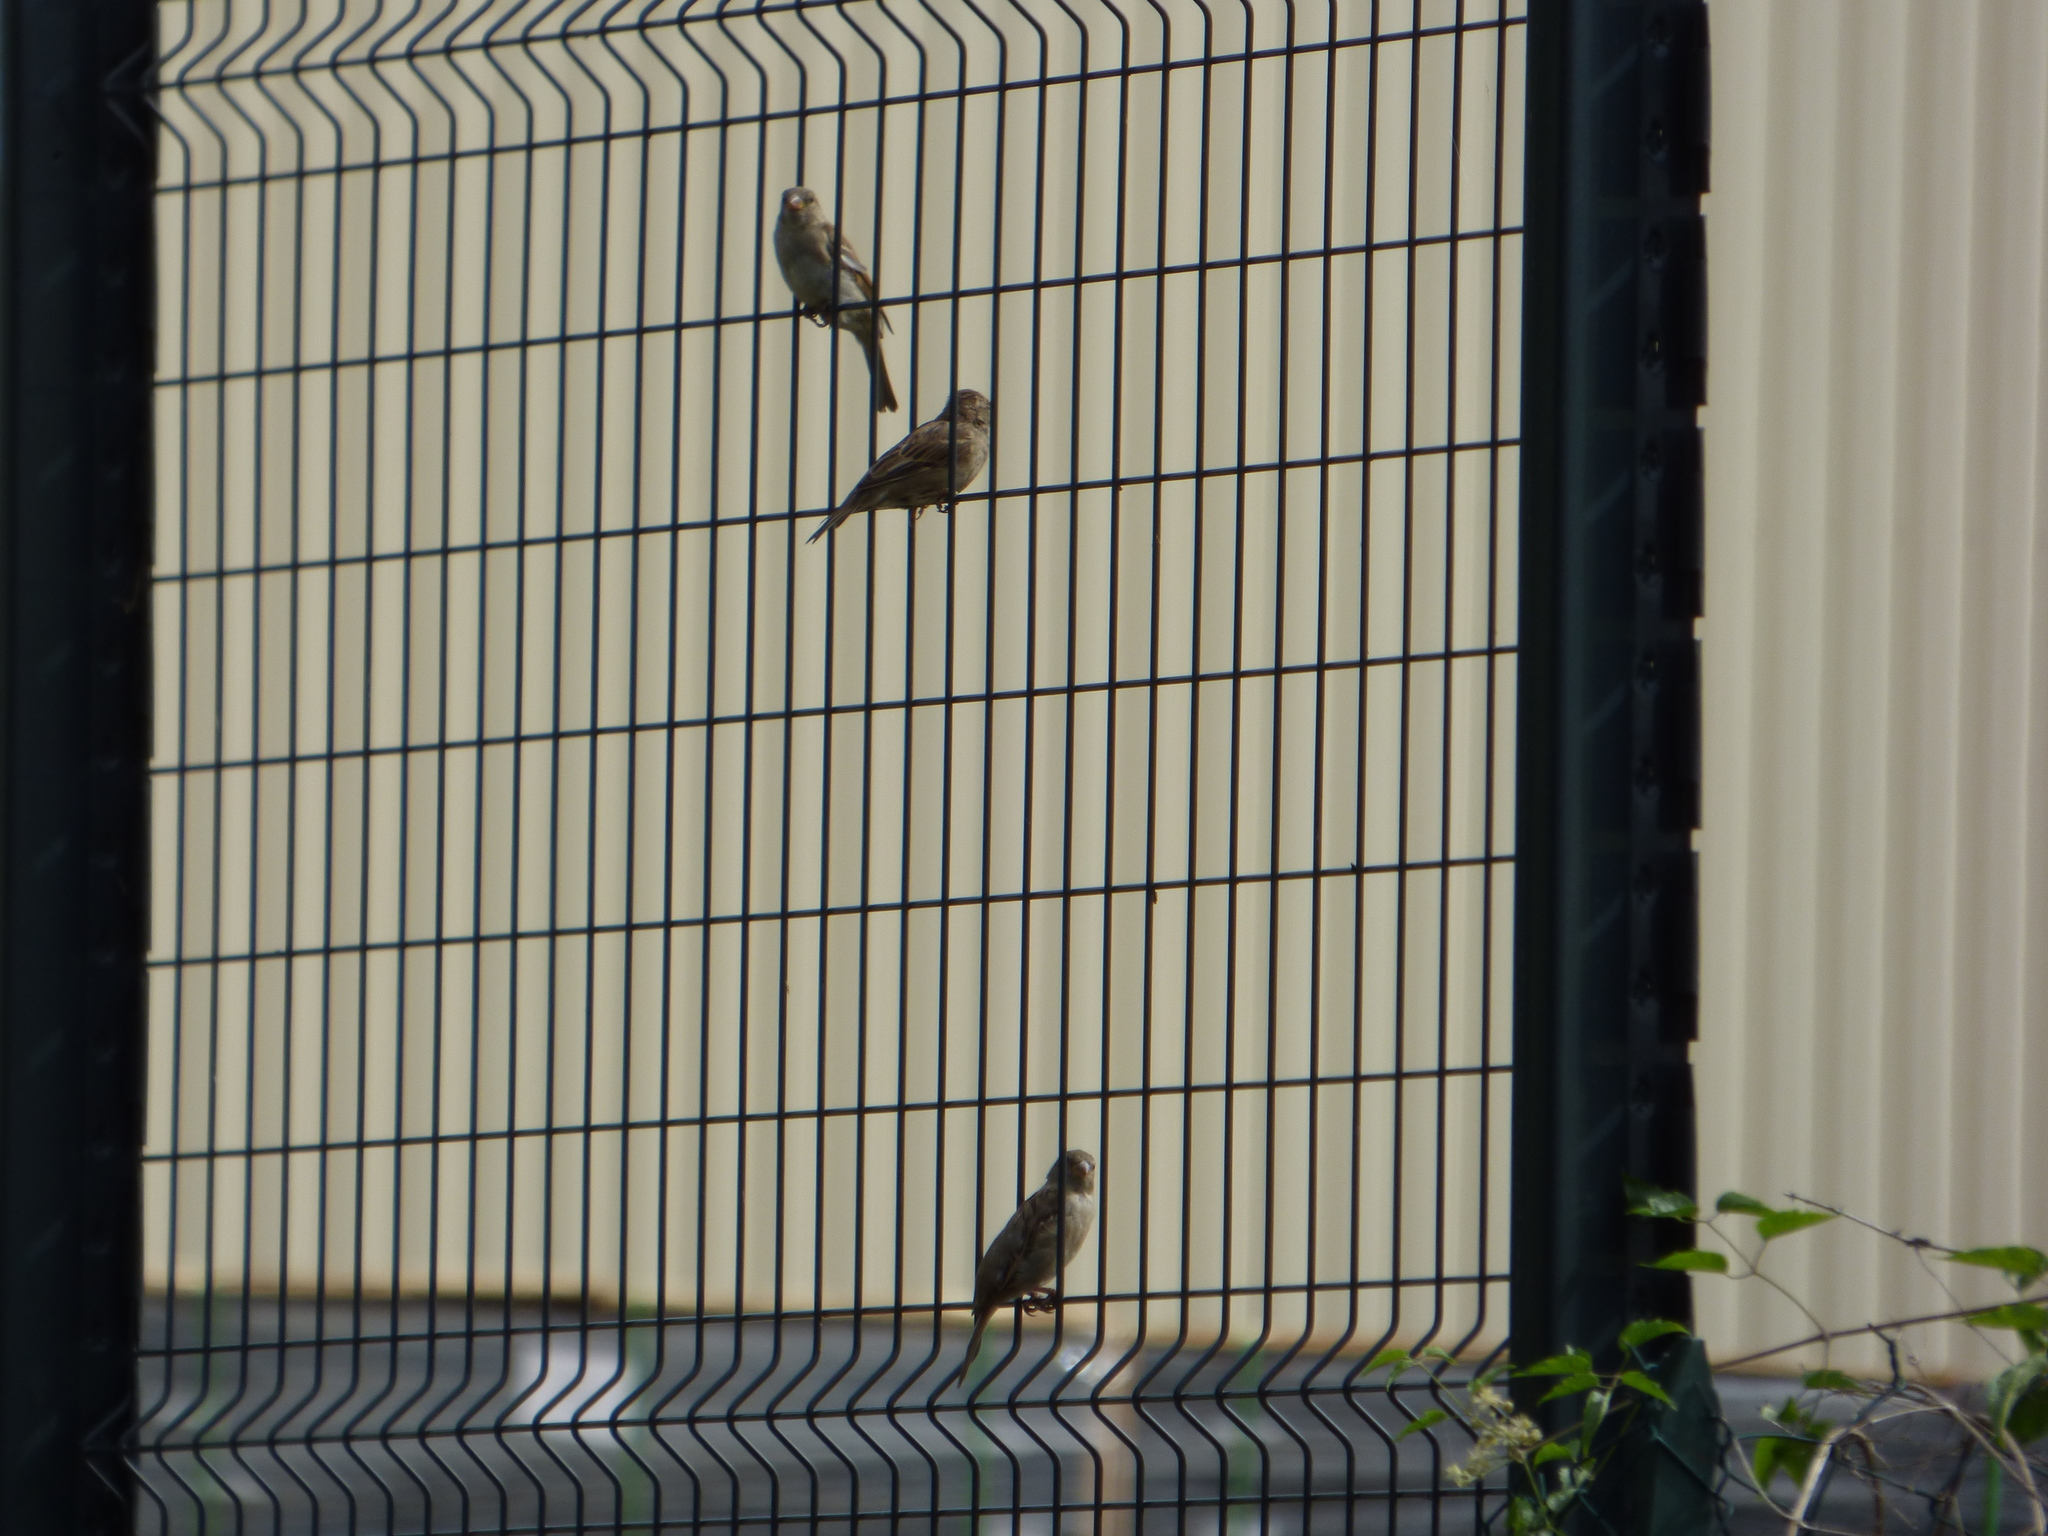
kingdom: Animalia
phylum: Chordata
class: Aves
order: Passeriformes
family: Passeridae
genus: Passer
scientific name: Passer domesticus
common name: House sparrow
